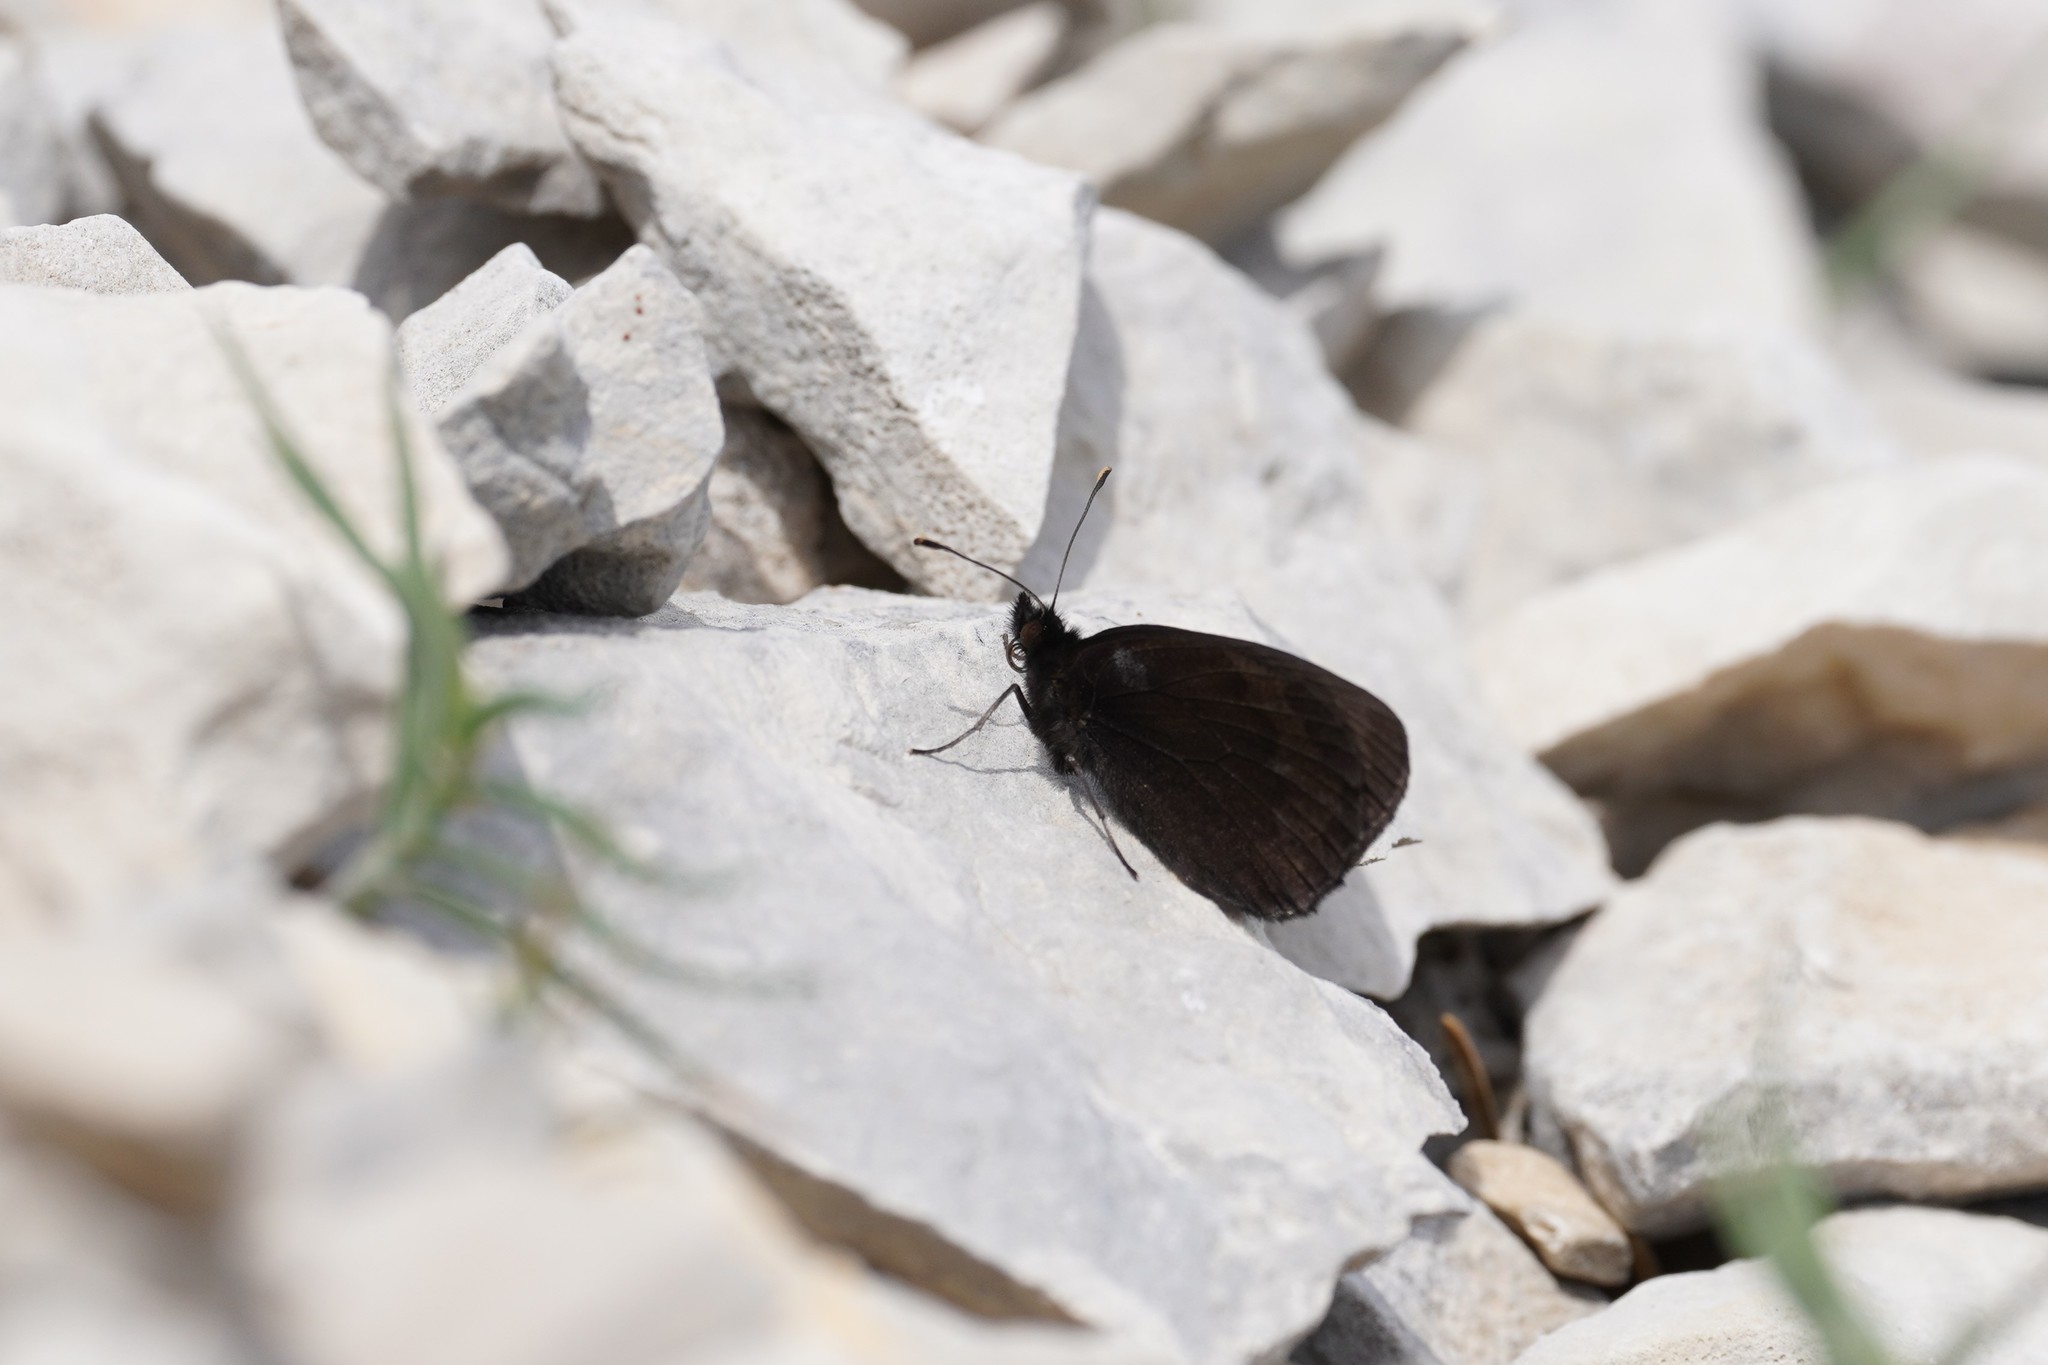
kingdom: Animalia
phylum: Arthropoda
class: Insecta
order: Lepidoptera
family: Nymphalidae
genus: Erebia
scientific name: Erebia scipio
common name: Larche ringlet
